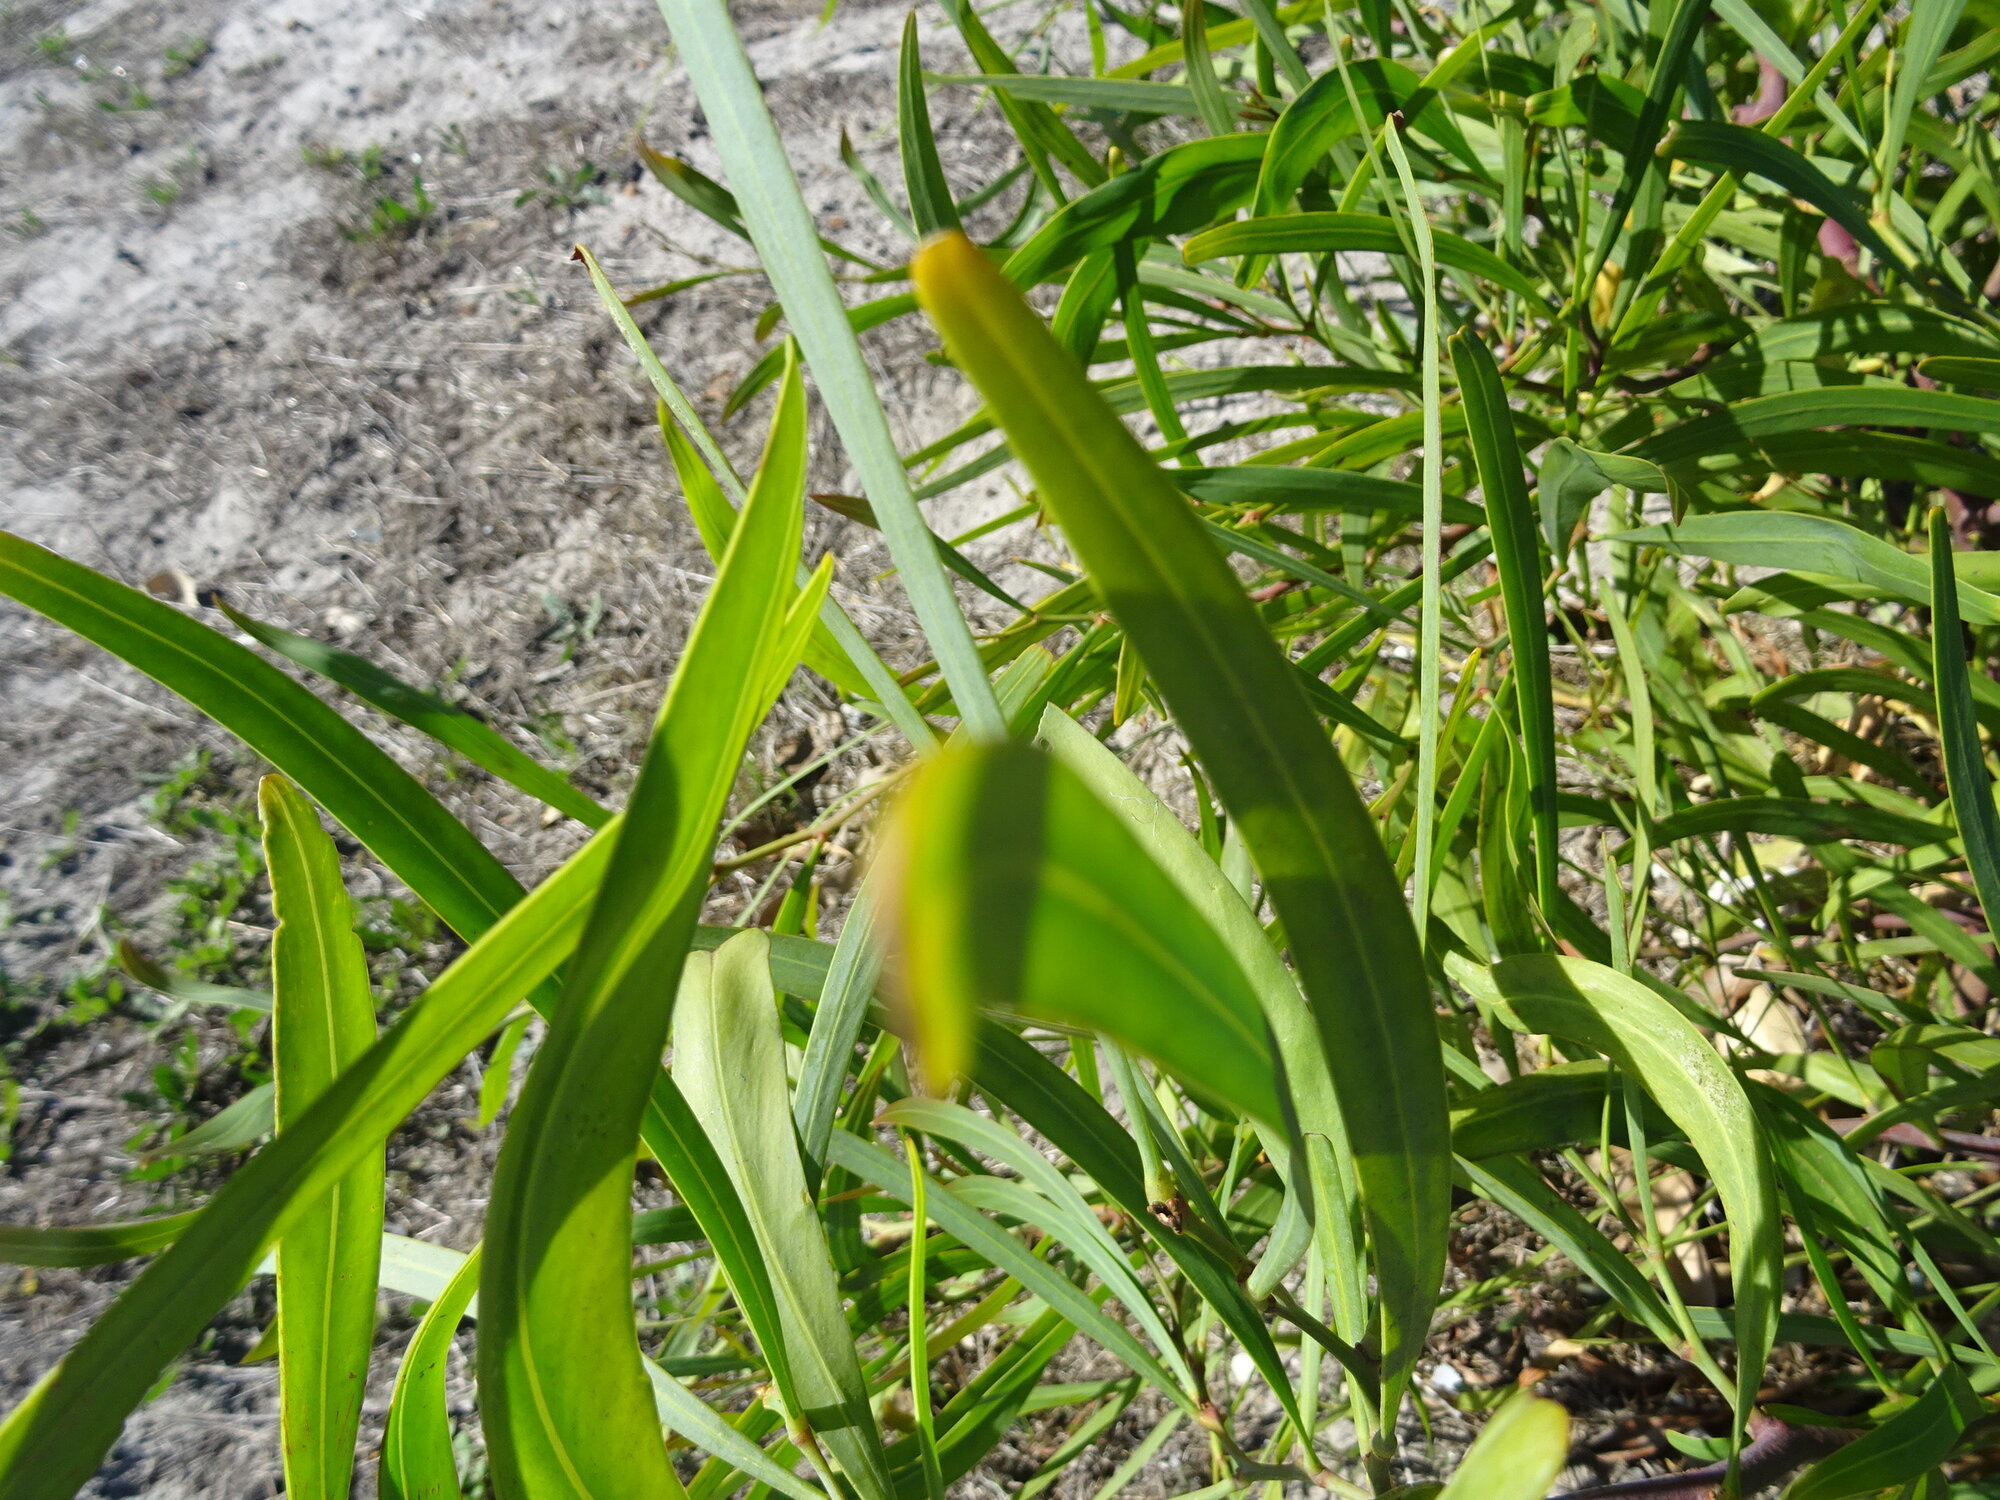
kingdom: Plantae
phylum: Tracheophyta
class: Magnoliopsida
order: Fabales
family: Fabaceae
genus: Acacia
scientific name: Acacia saligna
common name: Orange wattle
